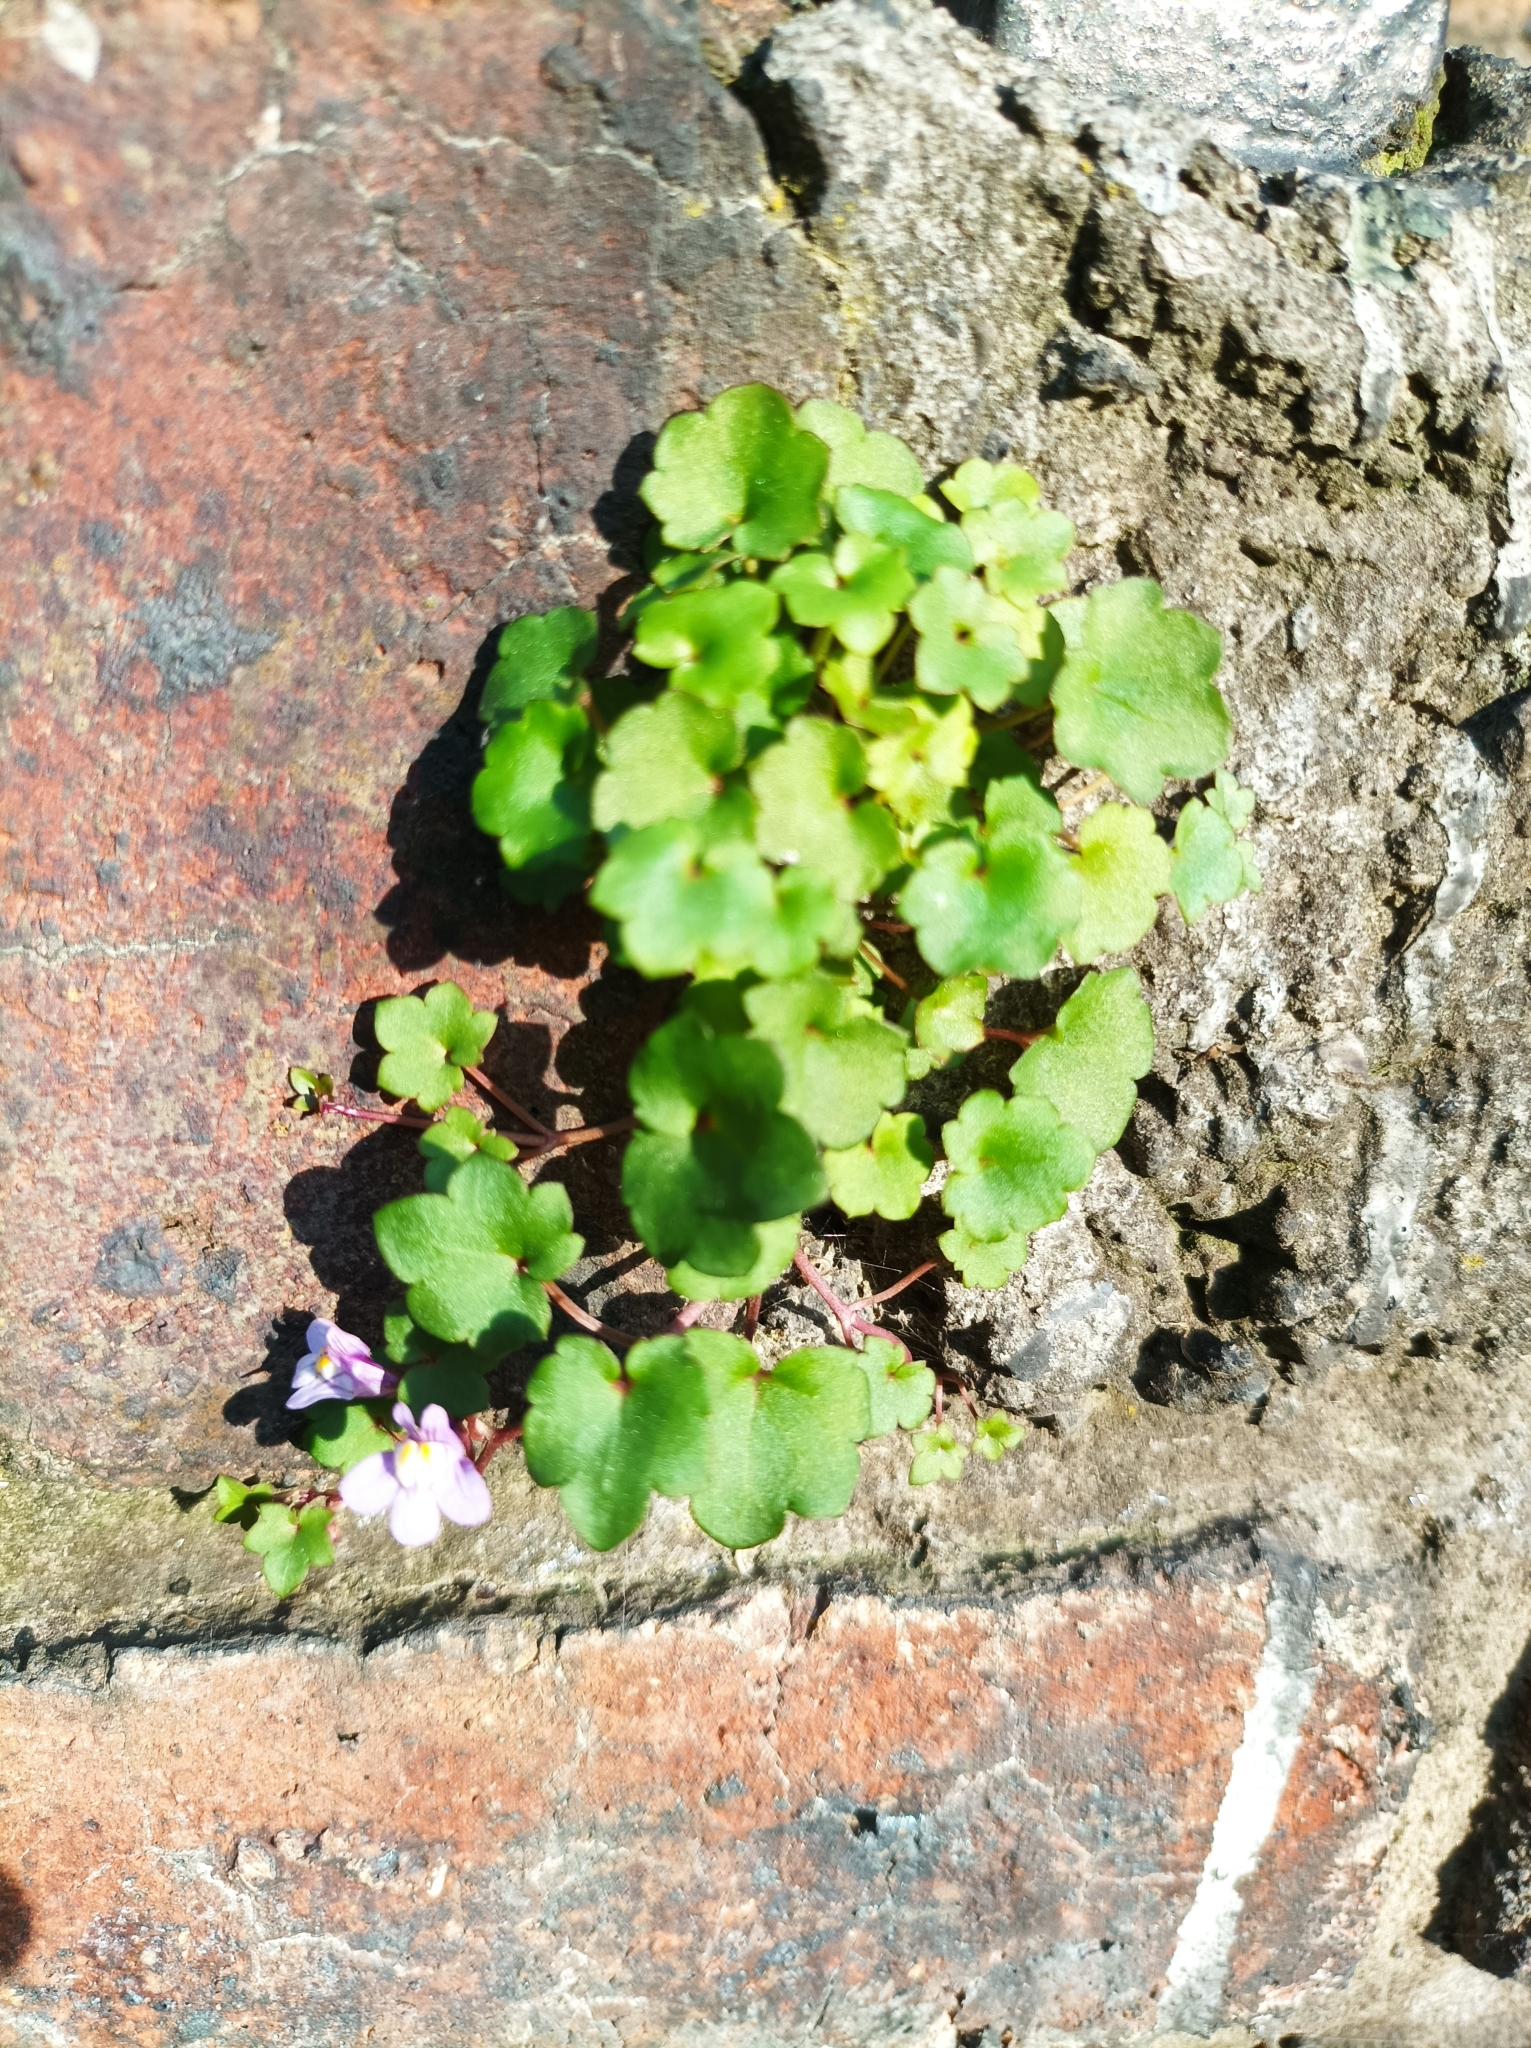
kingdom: Plantae
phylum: Tracheophyta
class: Magnoliopsida
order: Lamiales
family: Plantaginaceae
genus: Cymbalaria
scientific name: Cymbalaria muralis
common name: Ivy-leaved toadflax
